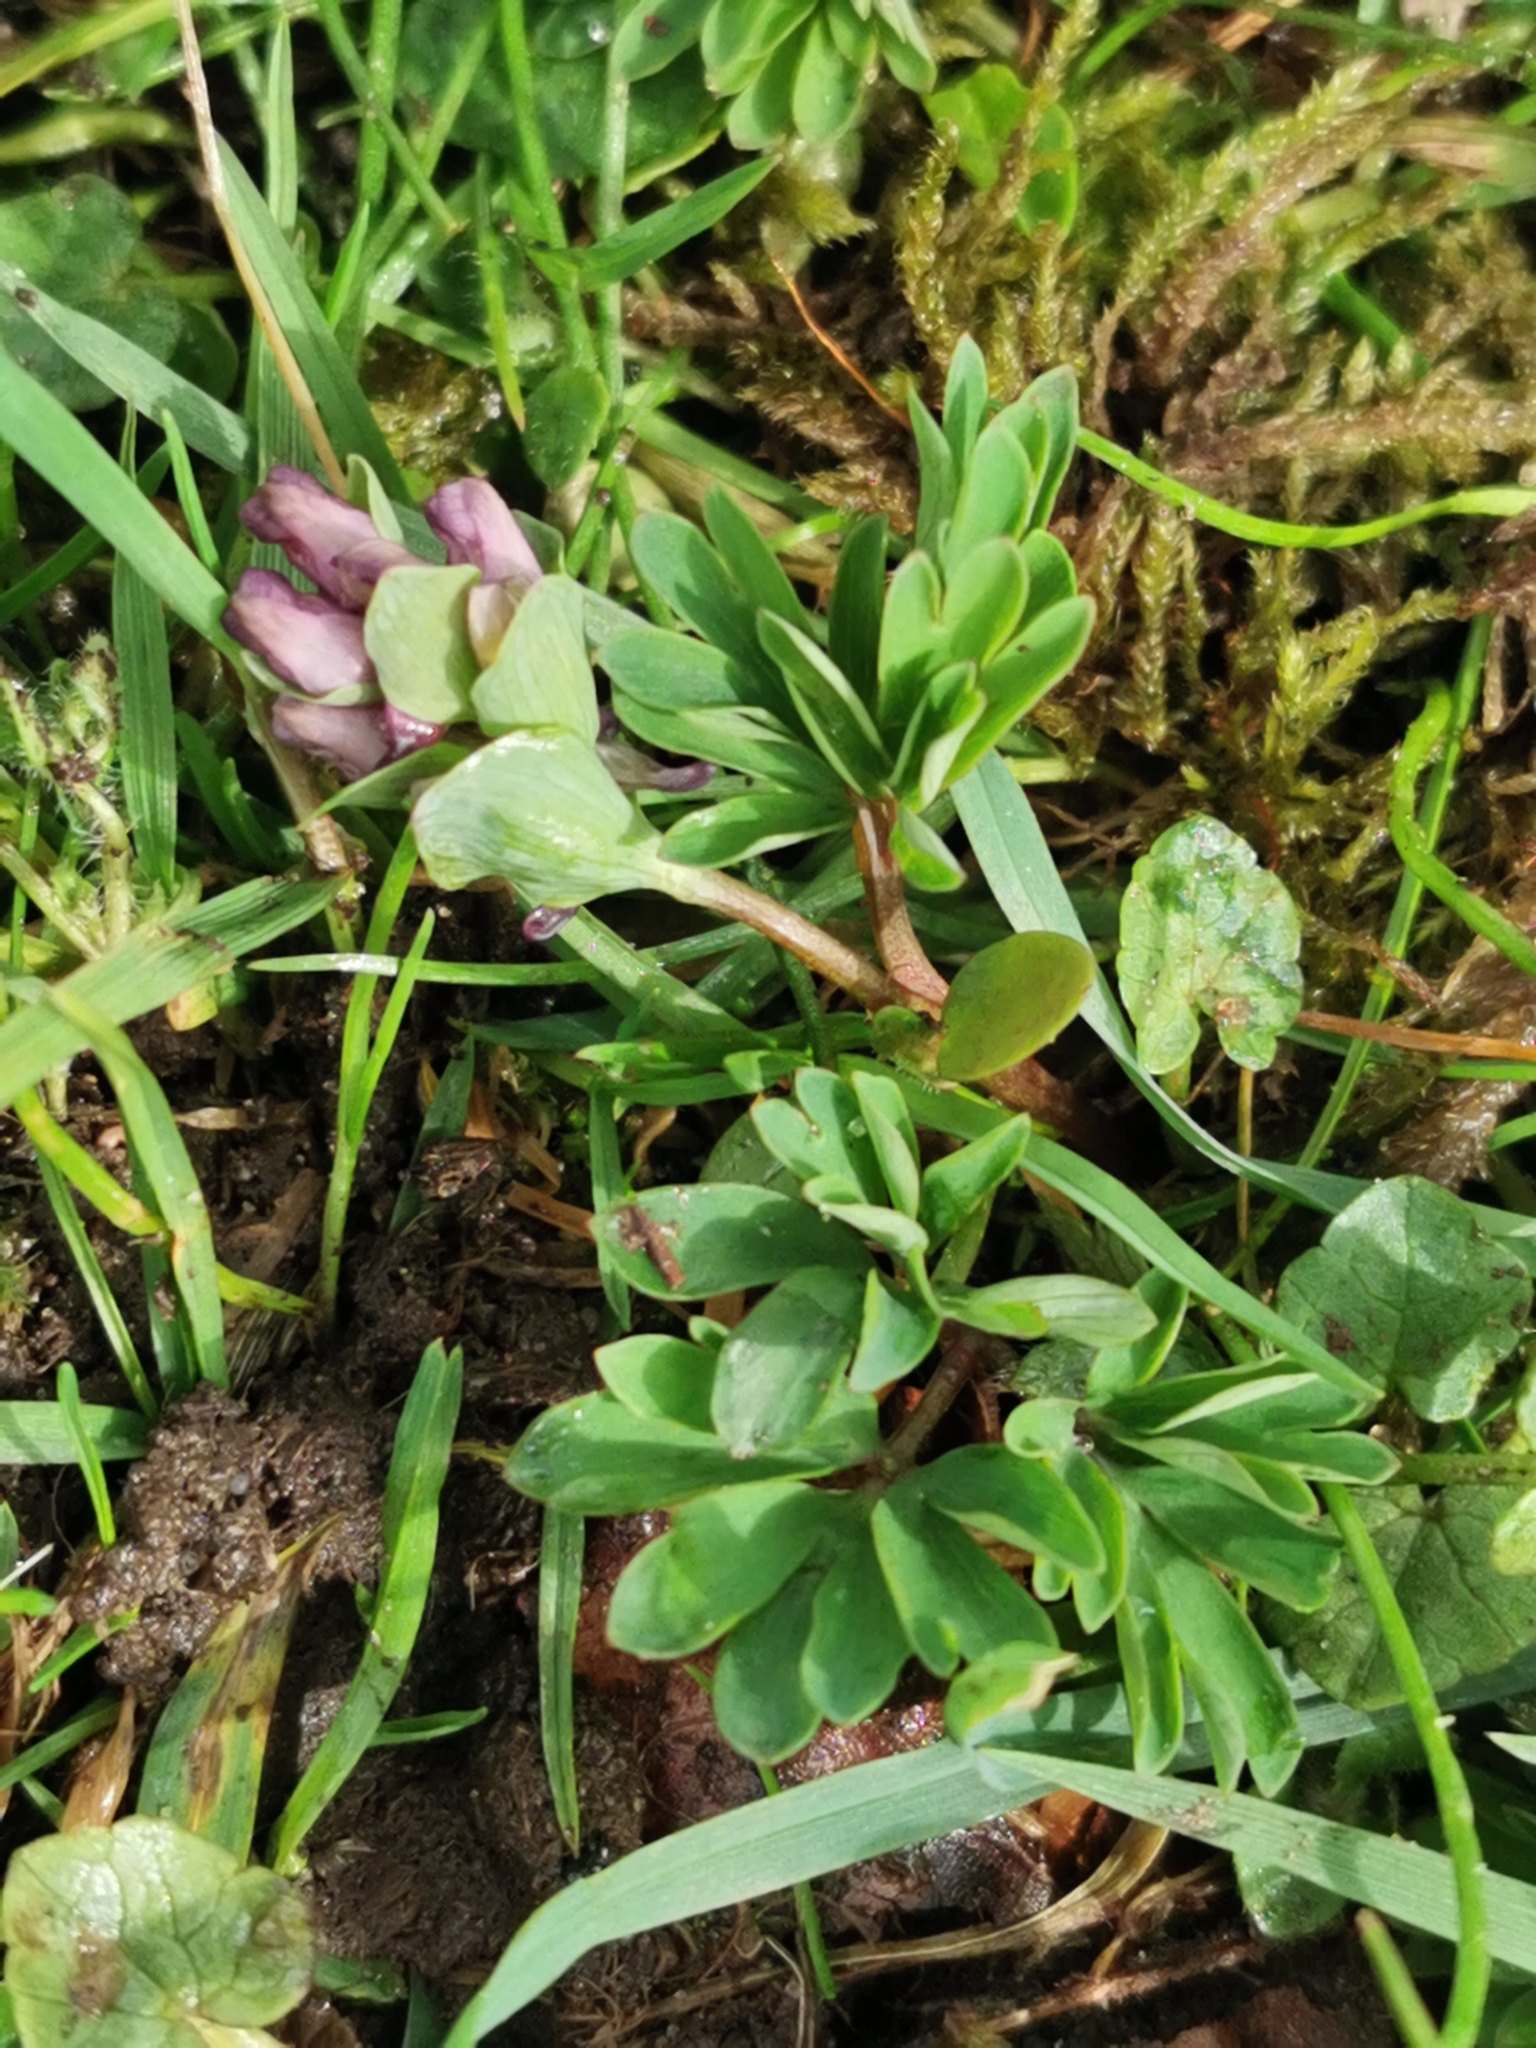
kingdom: Plantae
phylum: Tracheophyta
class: Magnoliopsida
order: Ranunculales
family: Papaveraceae
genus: Corydalis
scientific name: Corydalis intermedia
